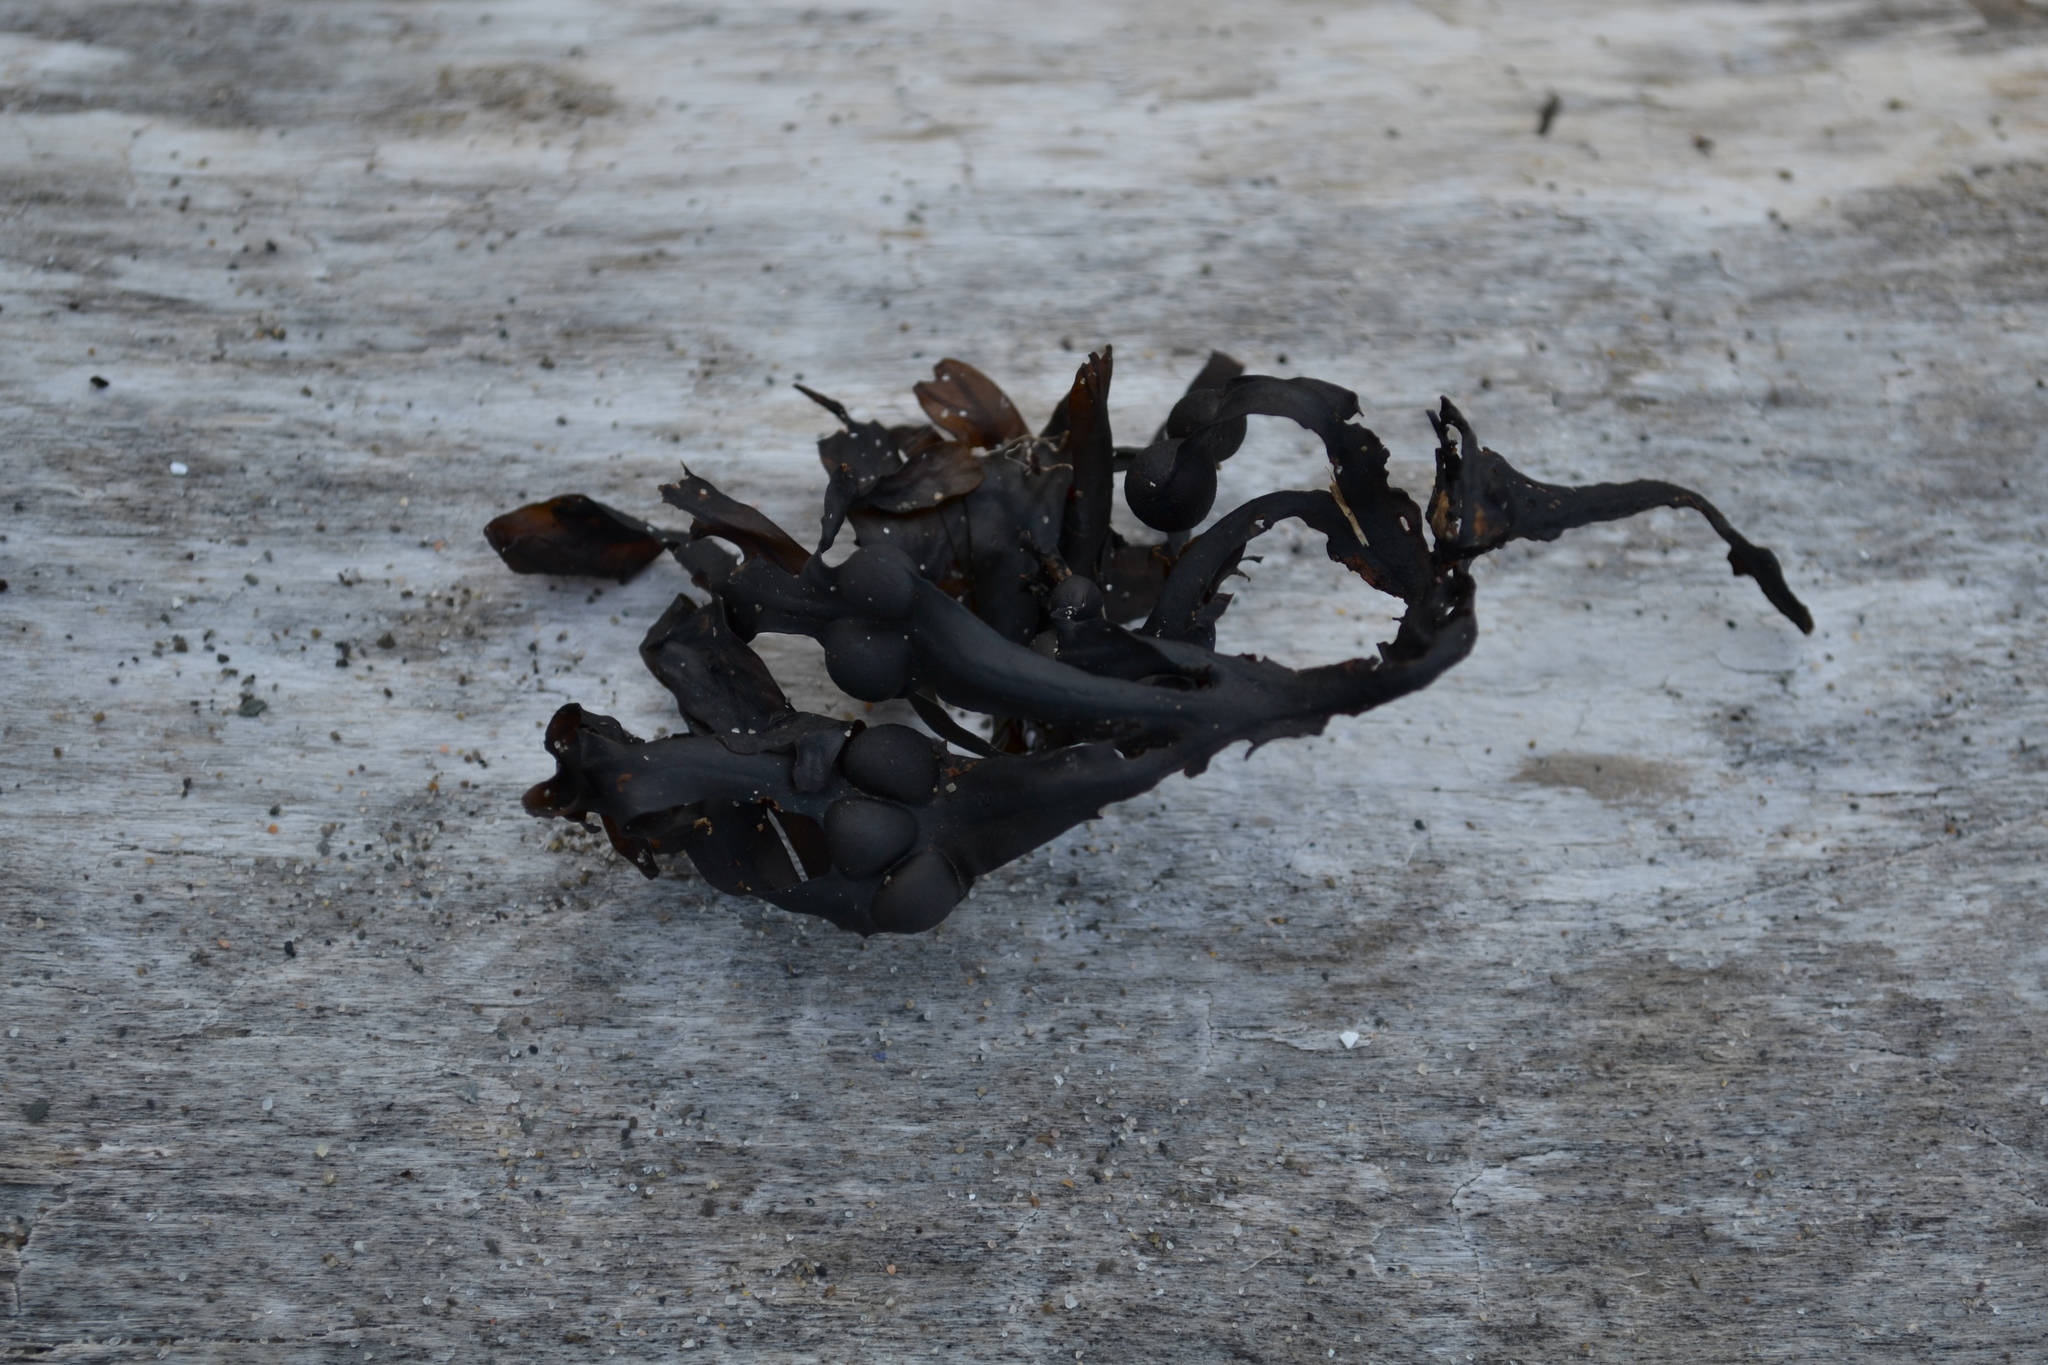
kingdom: Chromista
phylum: Ochrophyta
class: Phaeophyceae
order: Fucales
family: Fucaceae
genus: Fucus
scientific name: Fucus vesiculosus
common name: Bladder wrack
